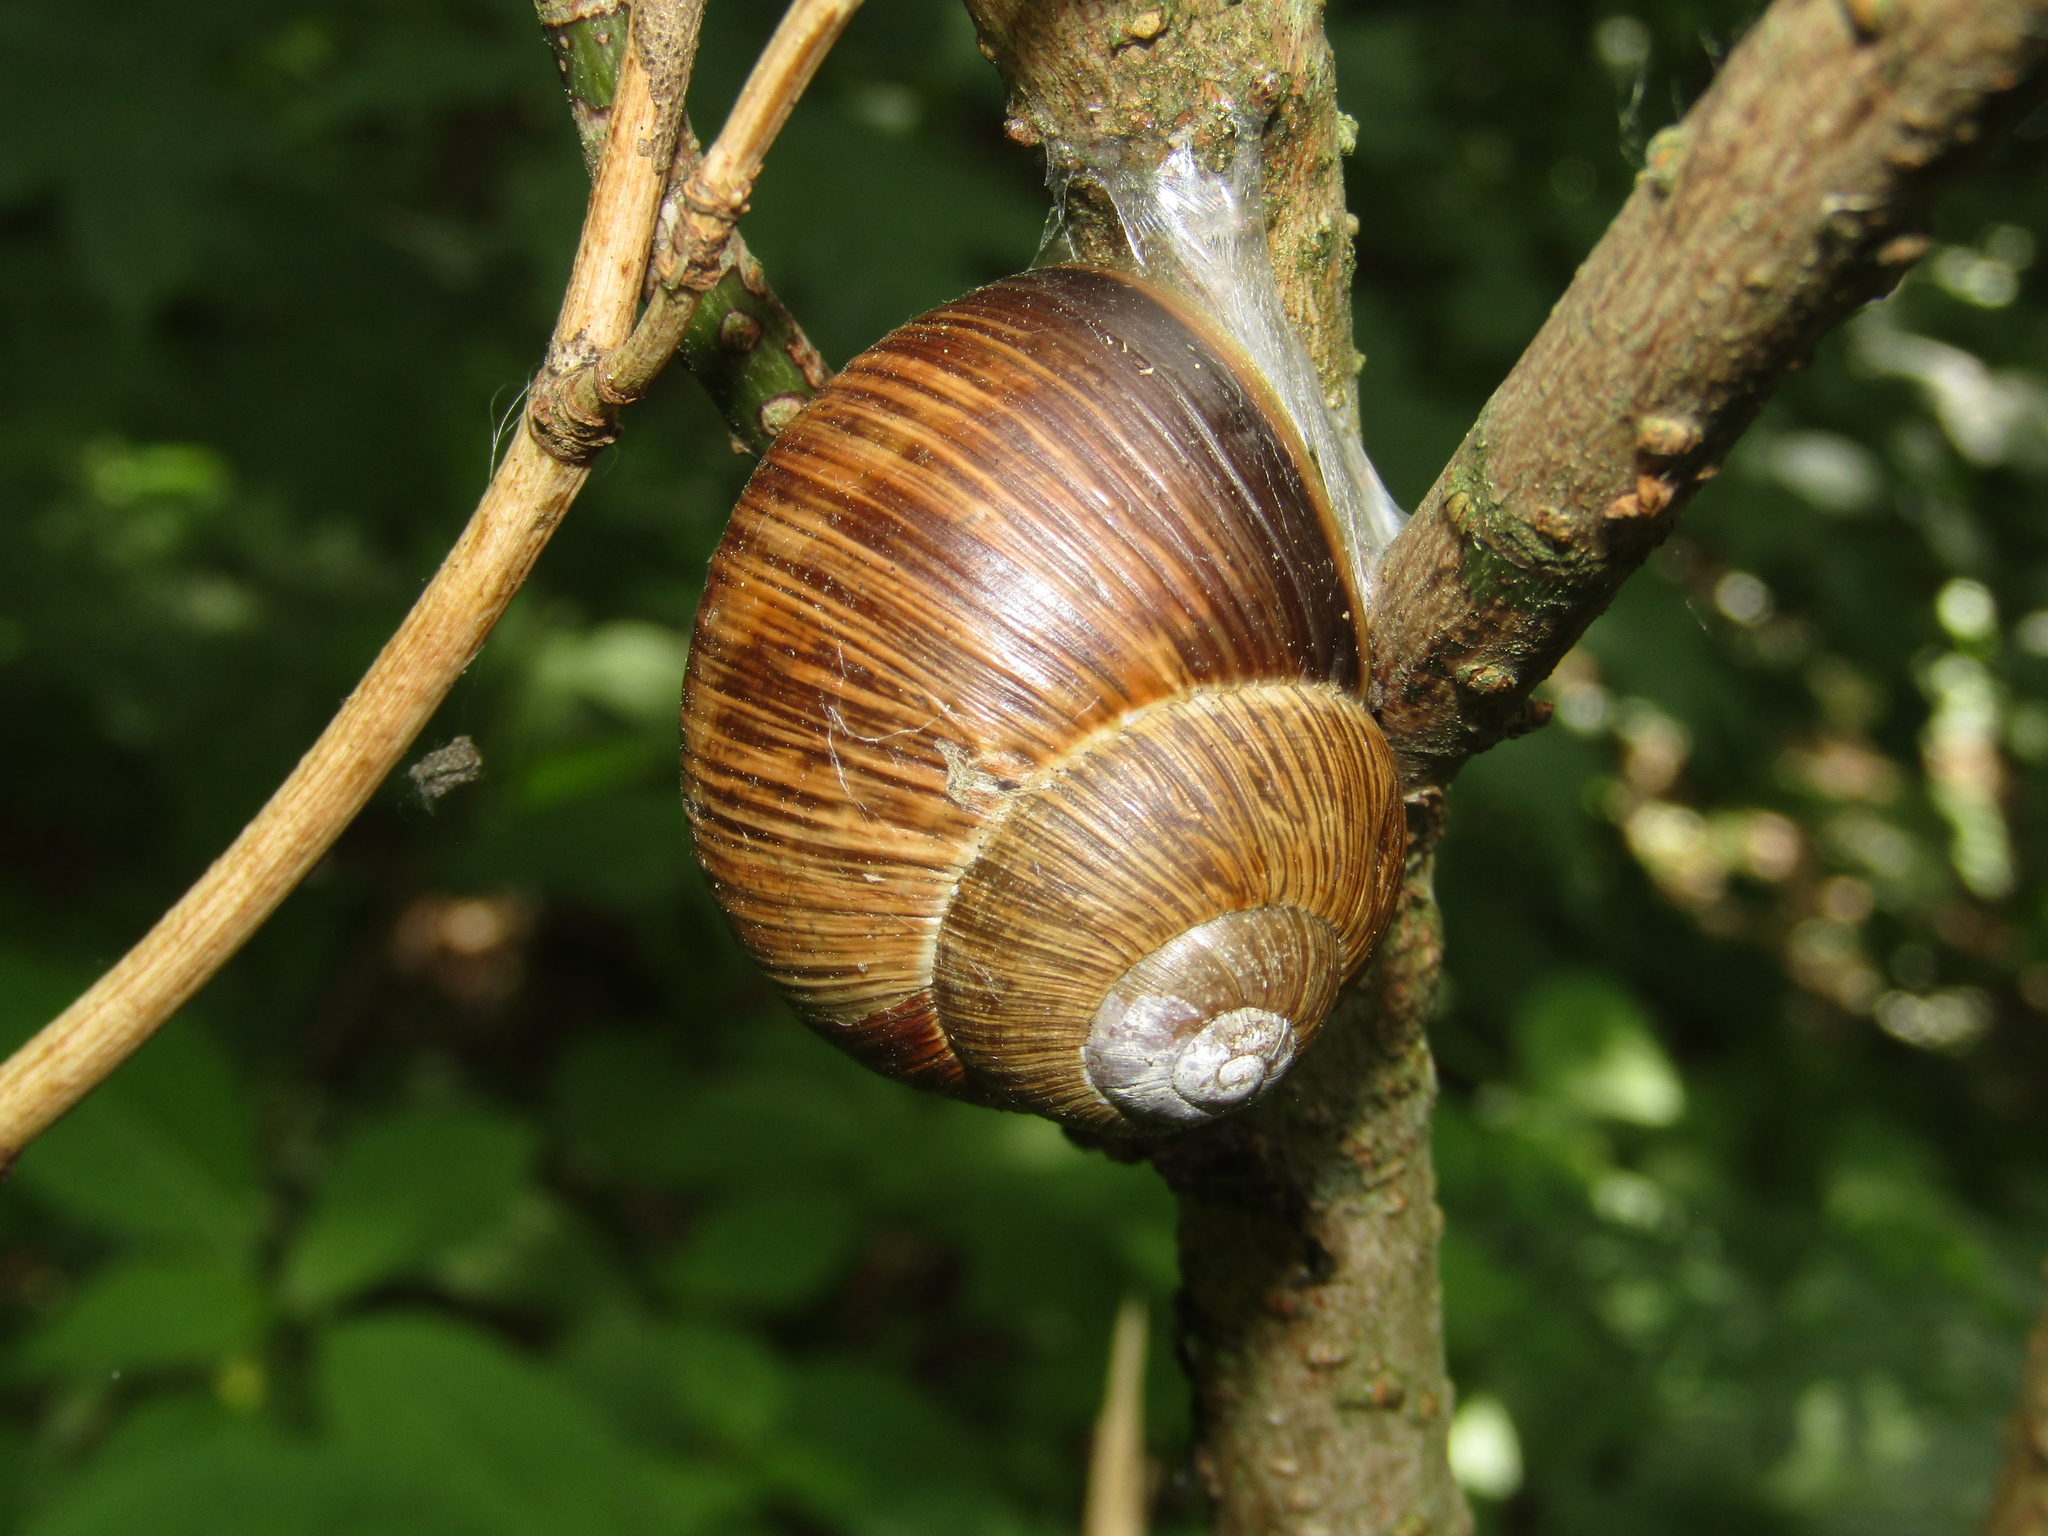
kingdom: Animalia
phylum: Mollusca
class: Gastropoda
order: Stylommatophora
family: Helicidae
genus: Helix
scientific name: Helix pomatia
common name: Roman snail
